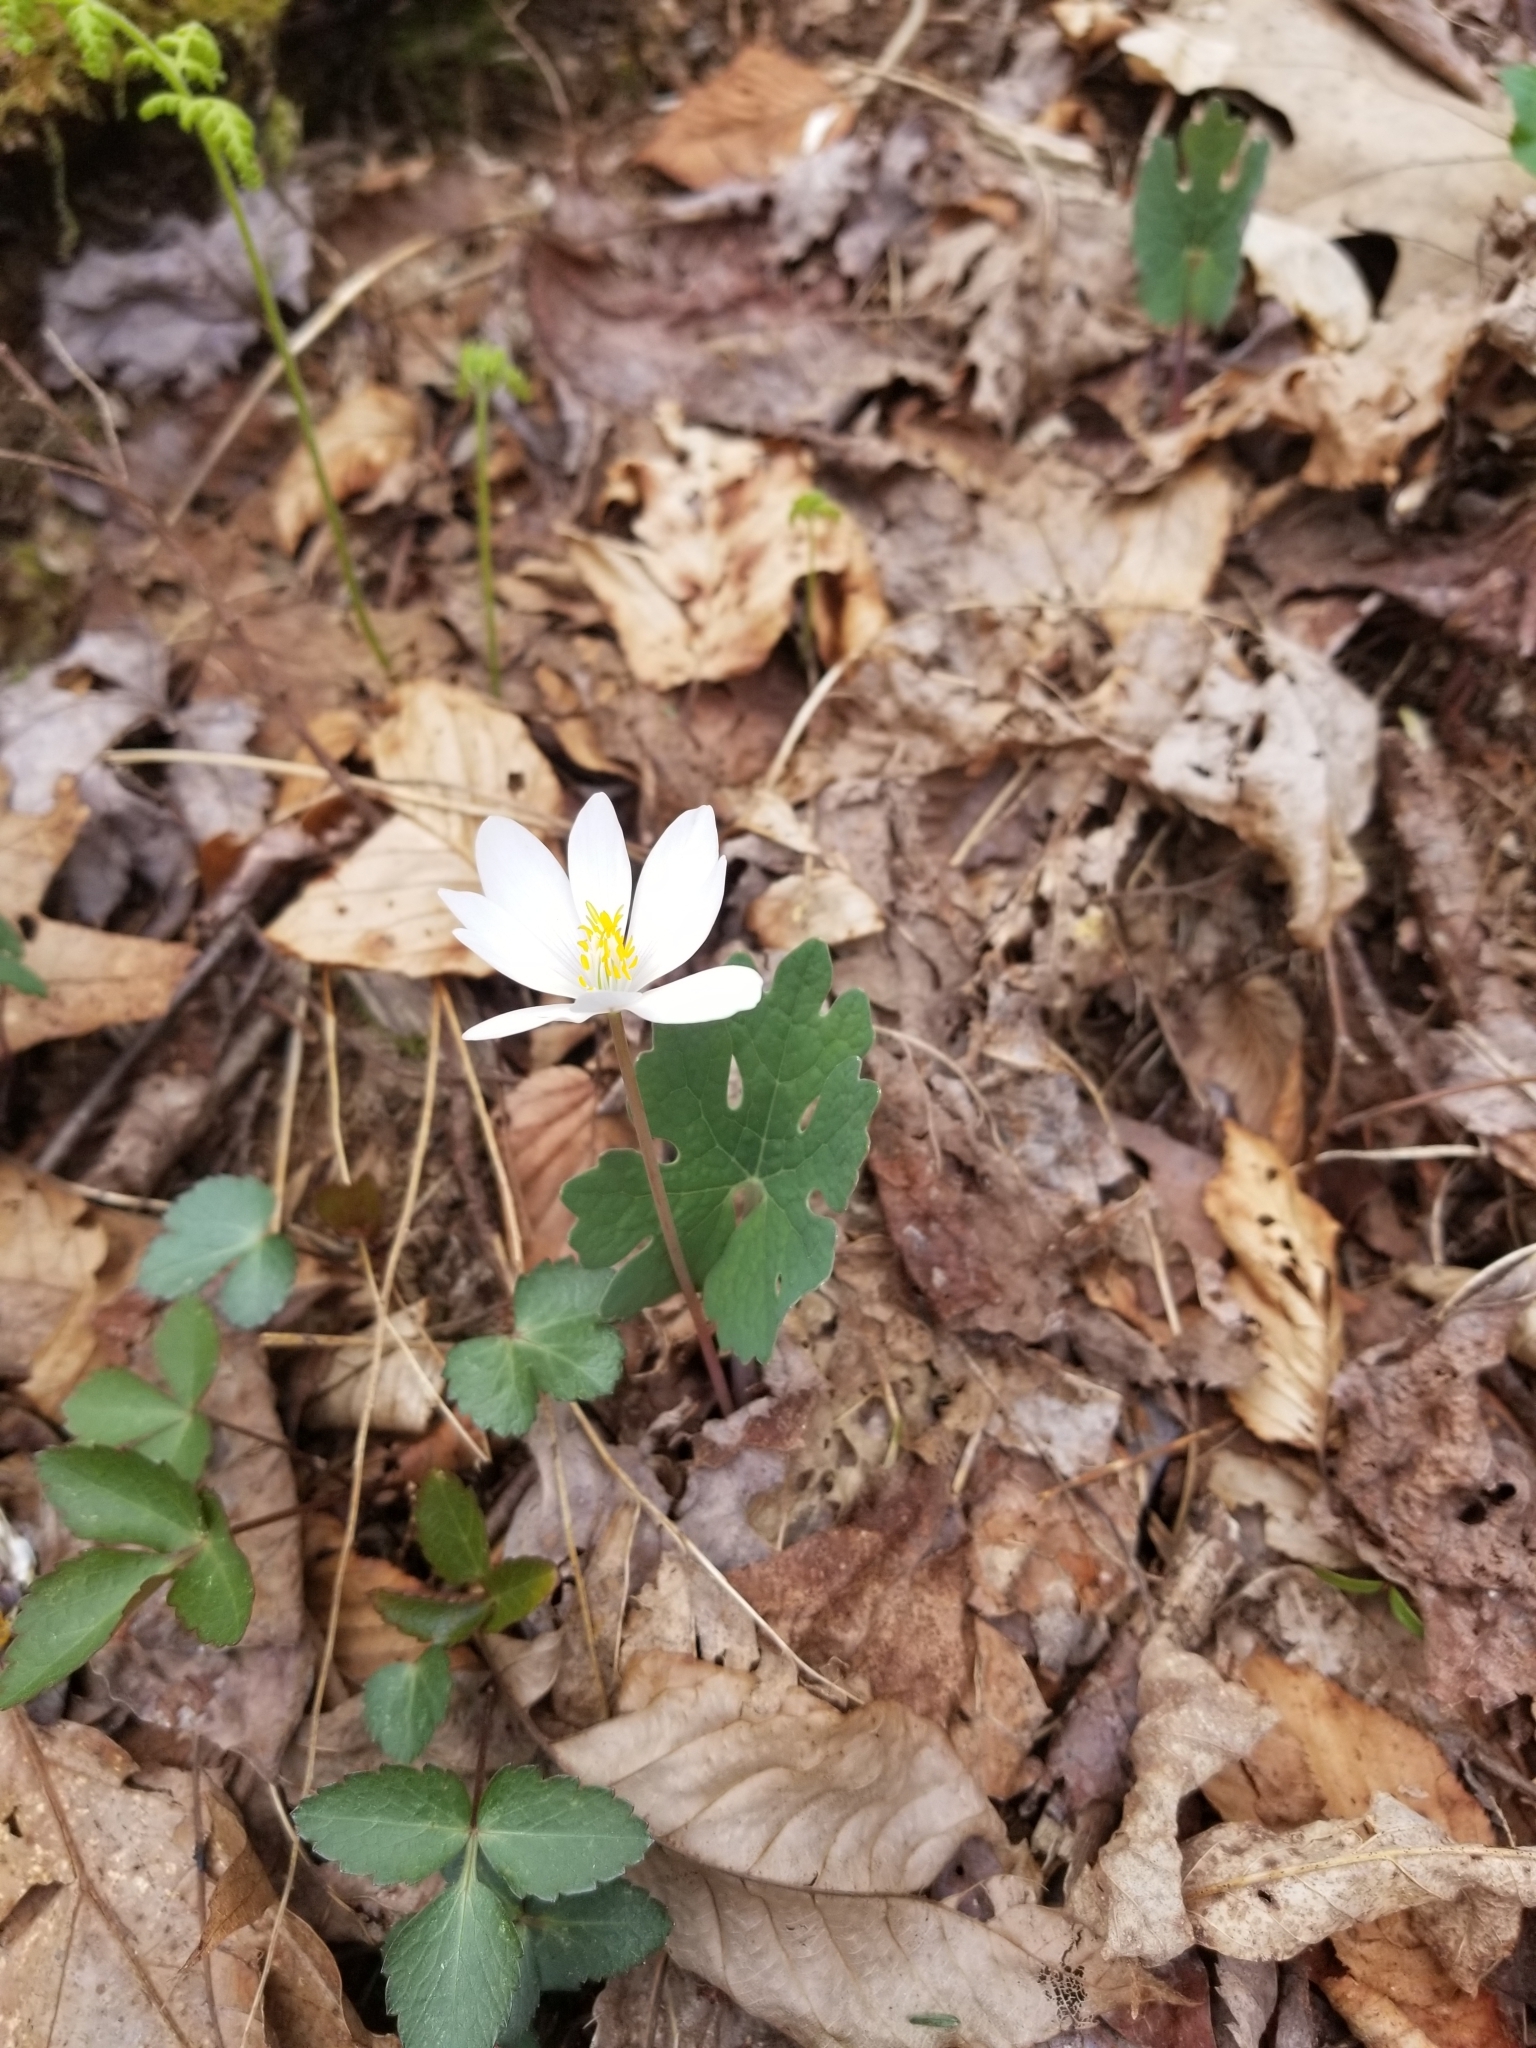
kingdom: Plantae
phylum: Tracheophyta
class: Magnoliopsida
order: Ranunculales
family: Papaveraceae
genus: Sanguinaria
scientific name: Sanguinaria canadensis
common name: Bloodroot
